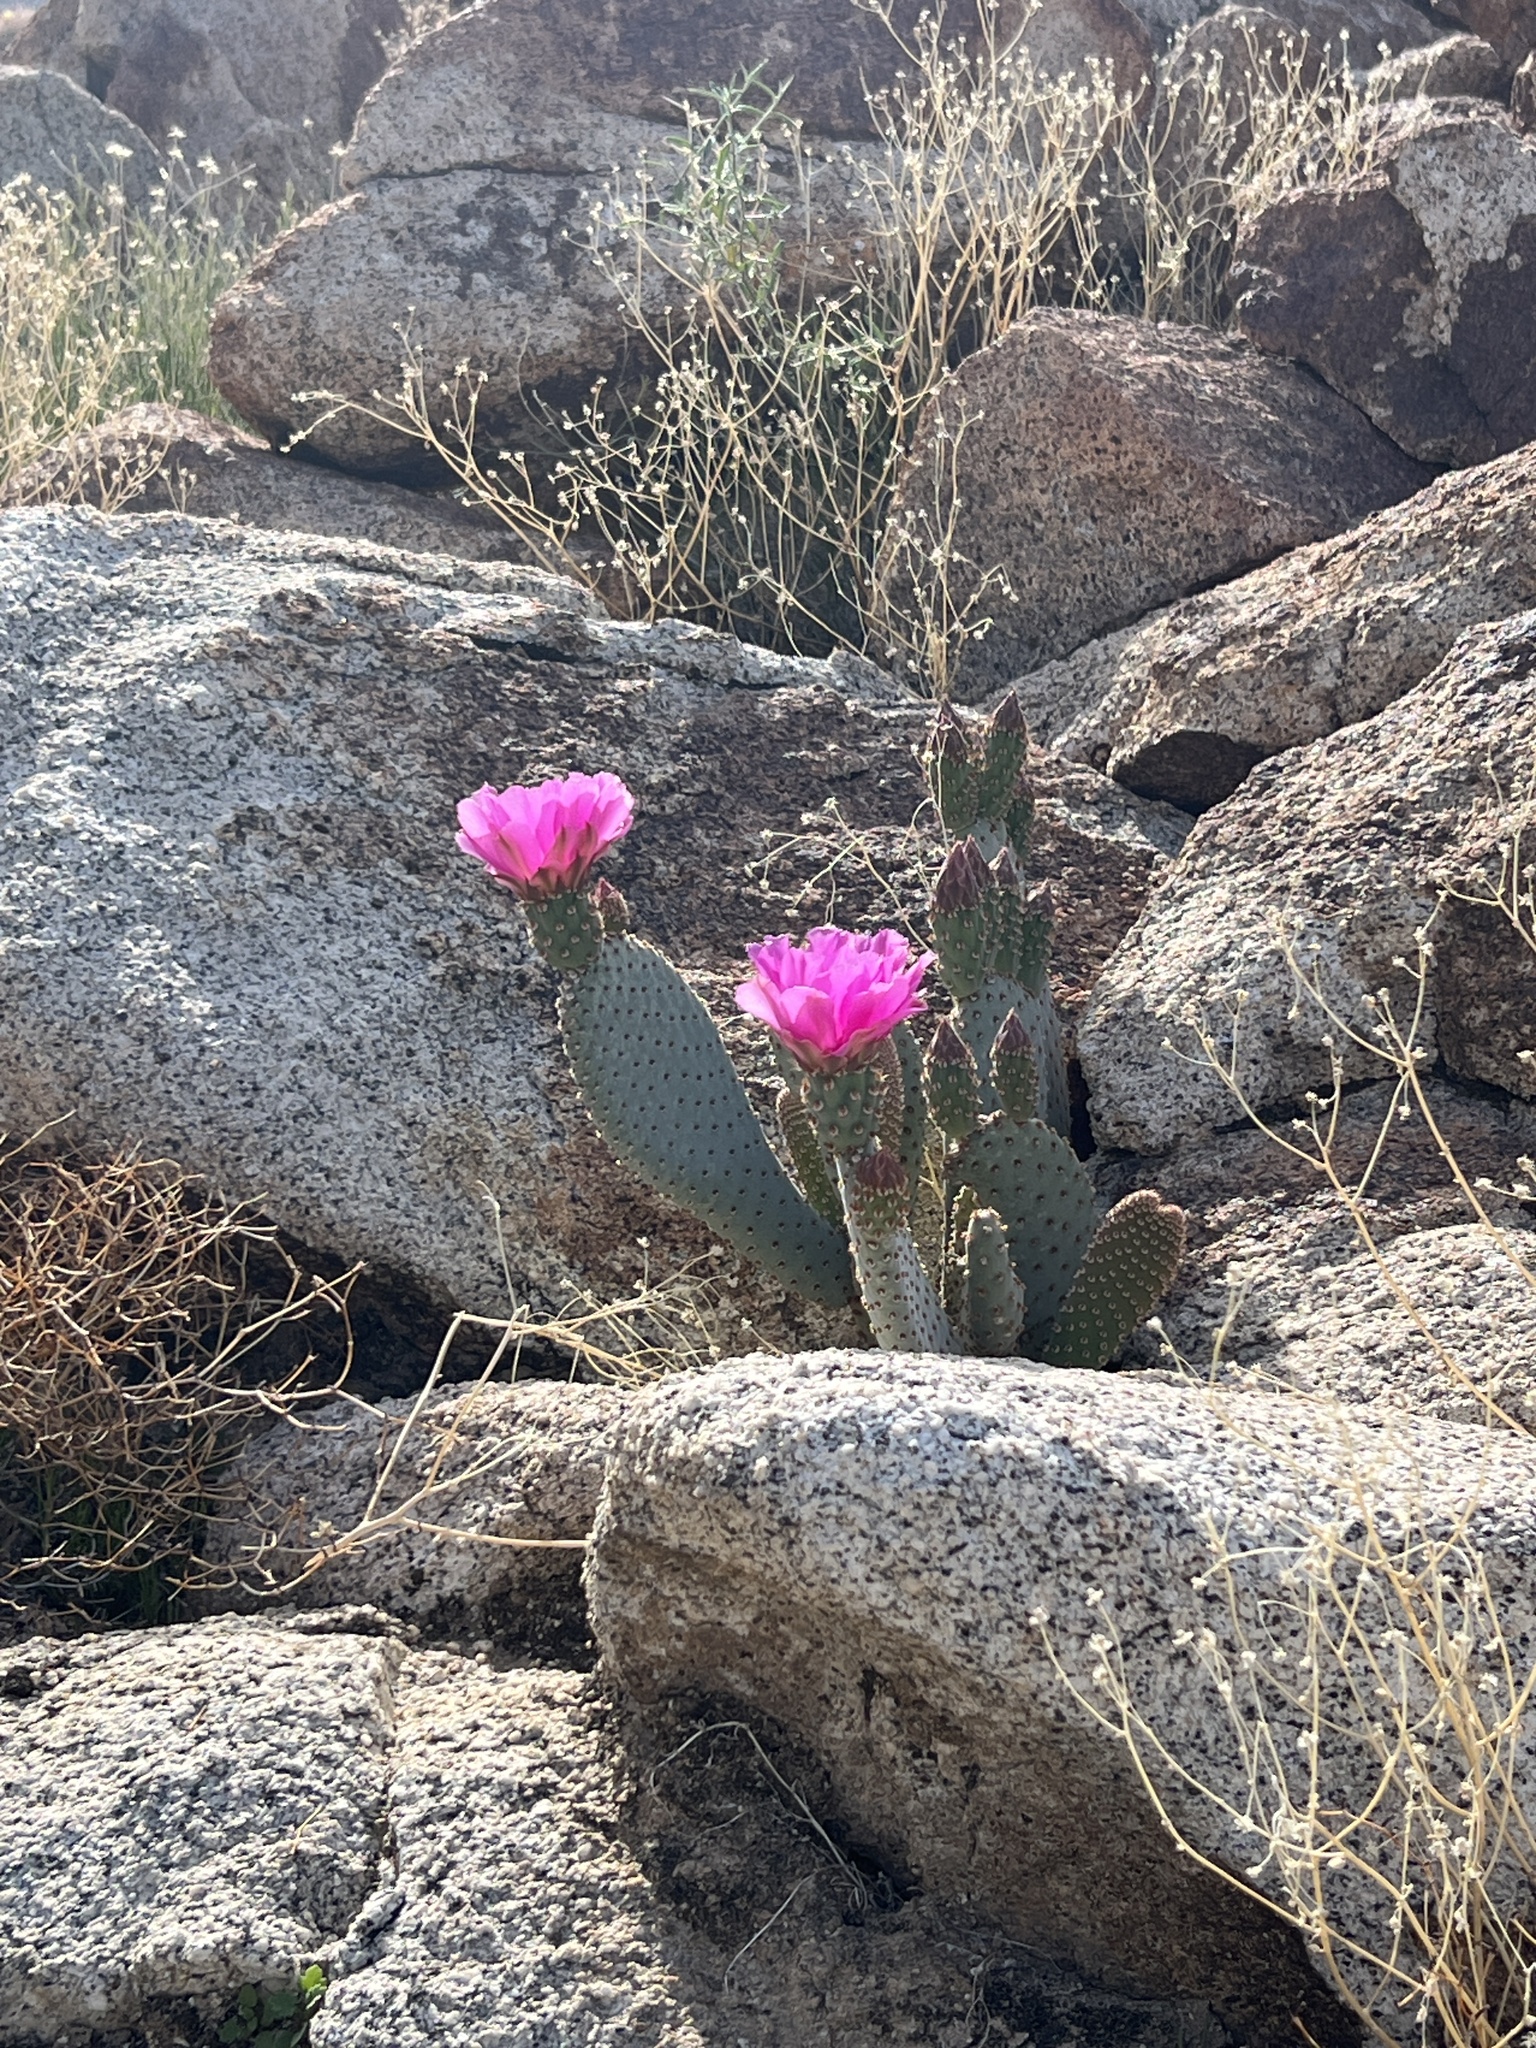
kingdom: Plantae
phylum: Tracheophyta
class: Magnoliopsida
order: Caryophyllales
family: Cactaceae
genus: Opuntia
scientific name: Opuntia basilaris
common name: Beavertail prickly-pear
